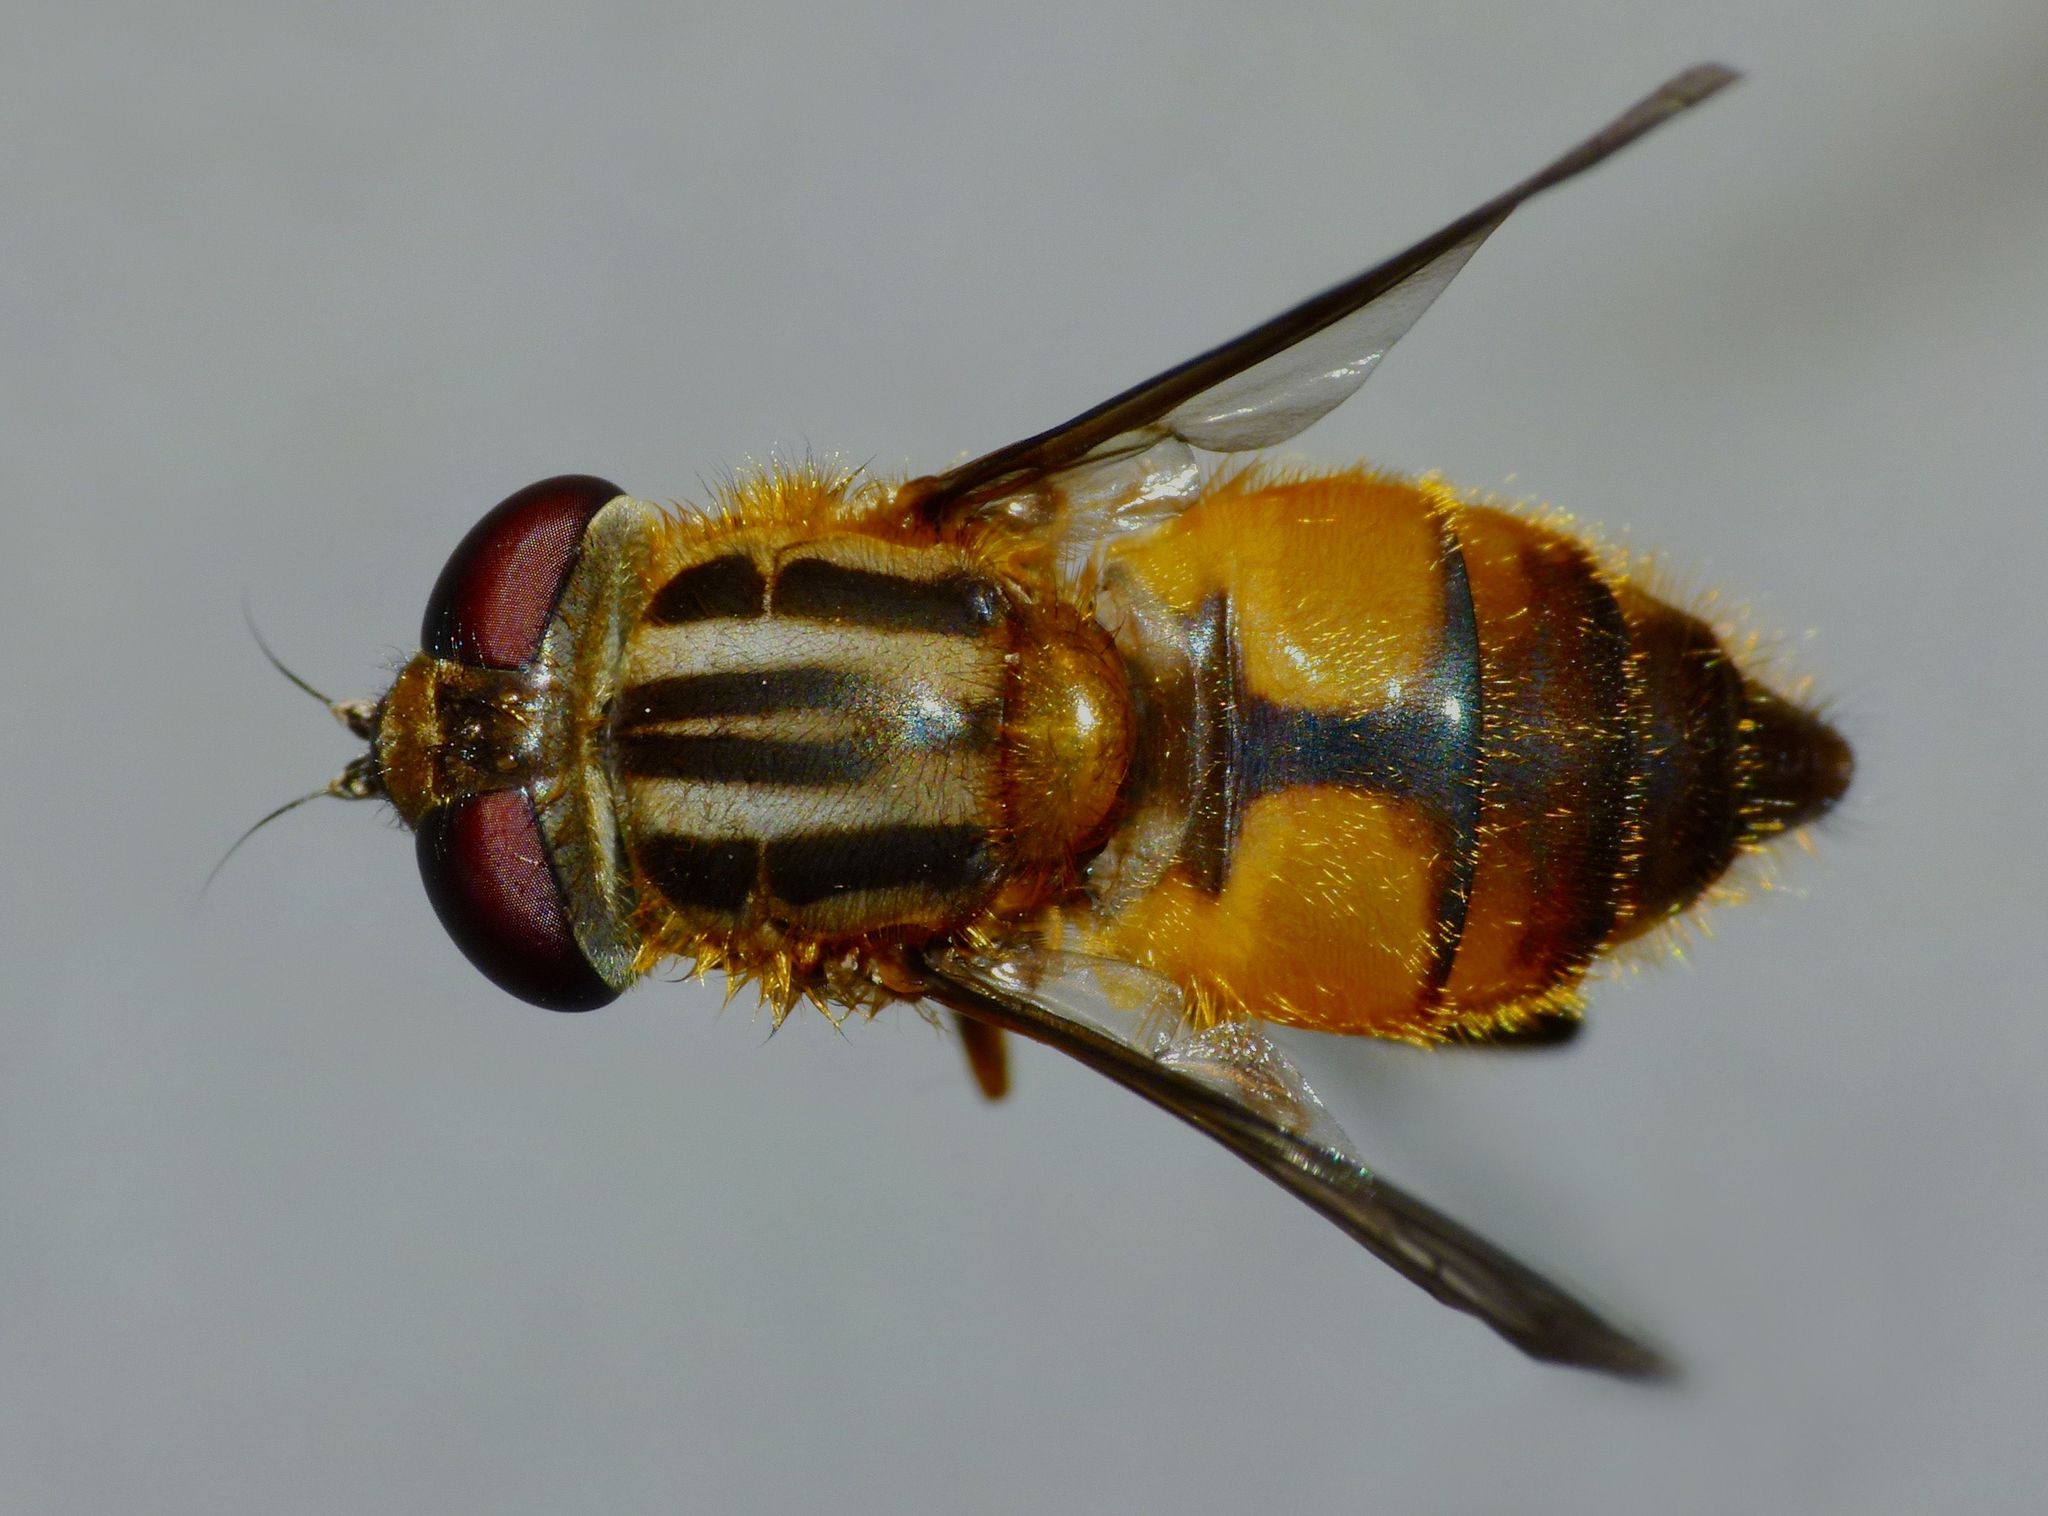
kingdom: Animalia
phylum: Arthropoda
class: Insecta
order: Diptera
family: Syrphidae
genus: Helophilus
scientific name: Helophilus antipodus
